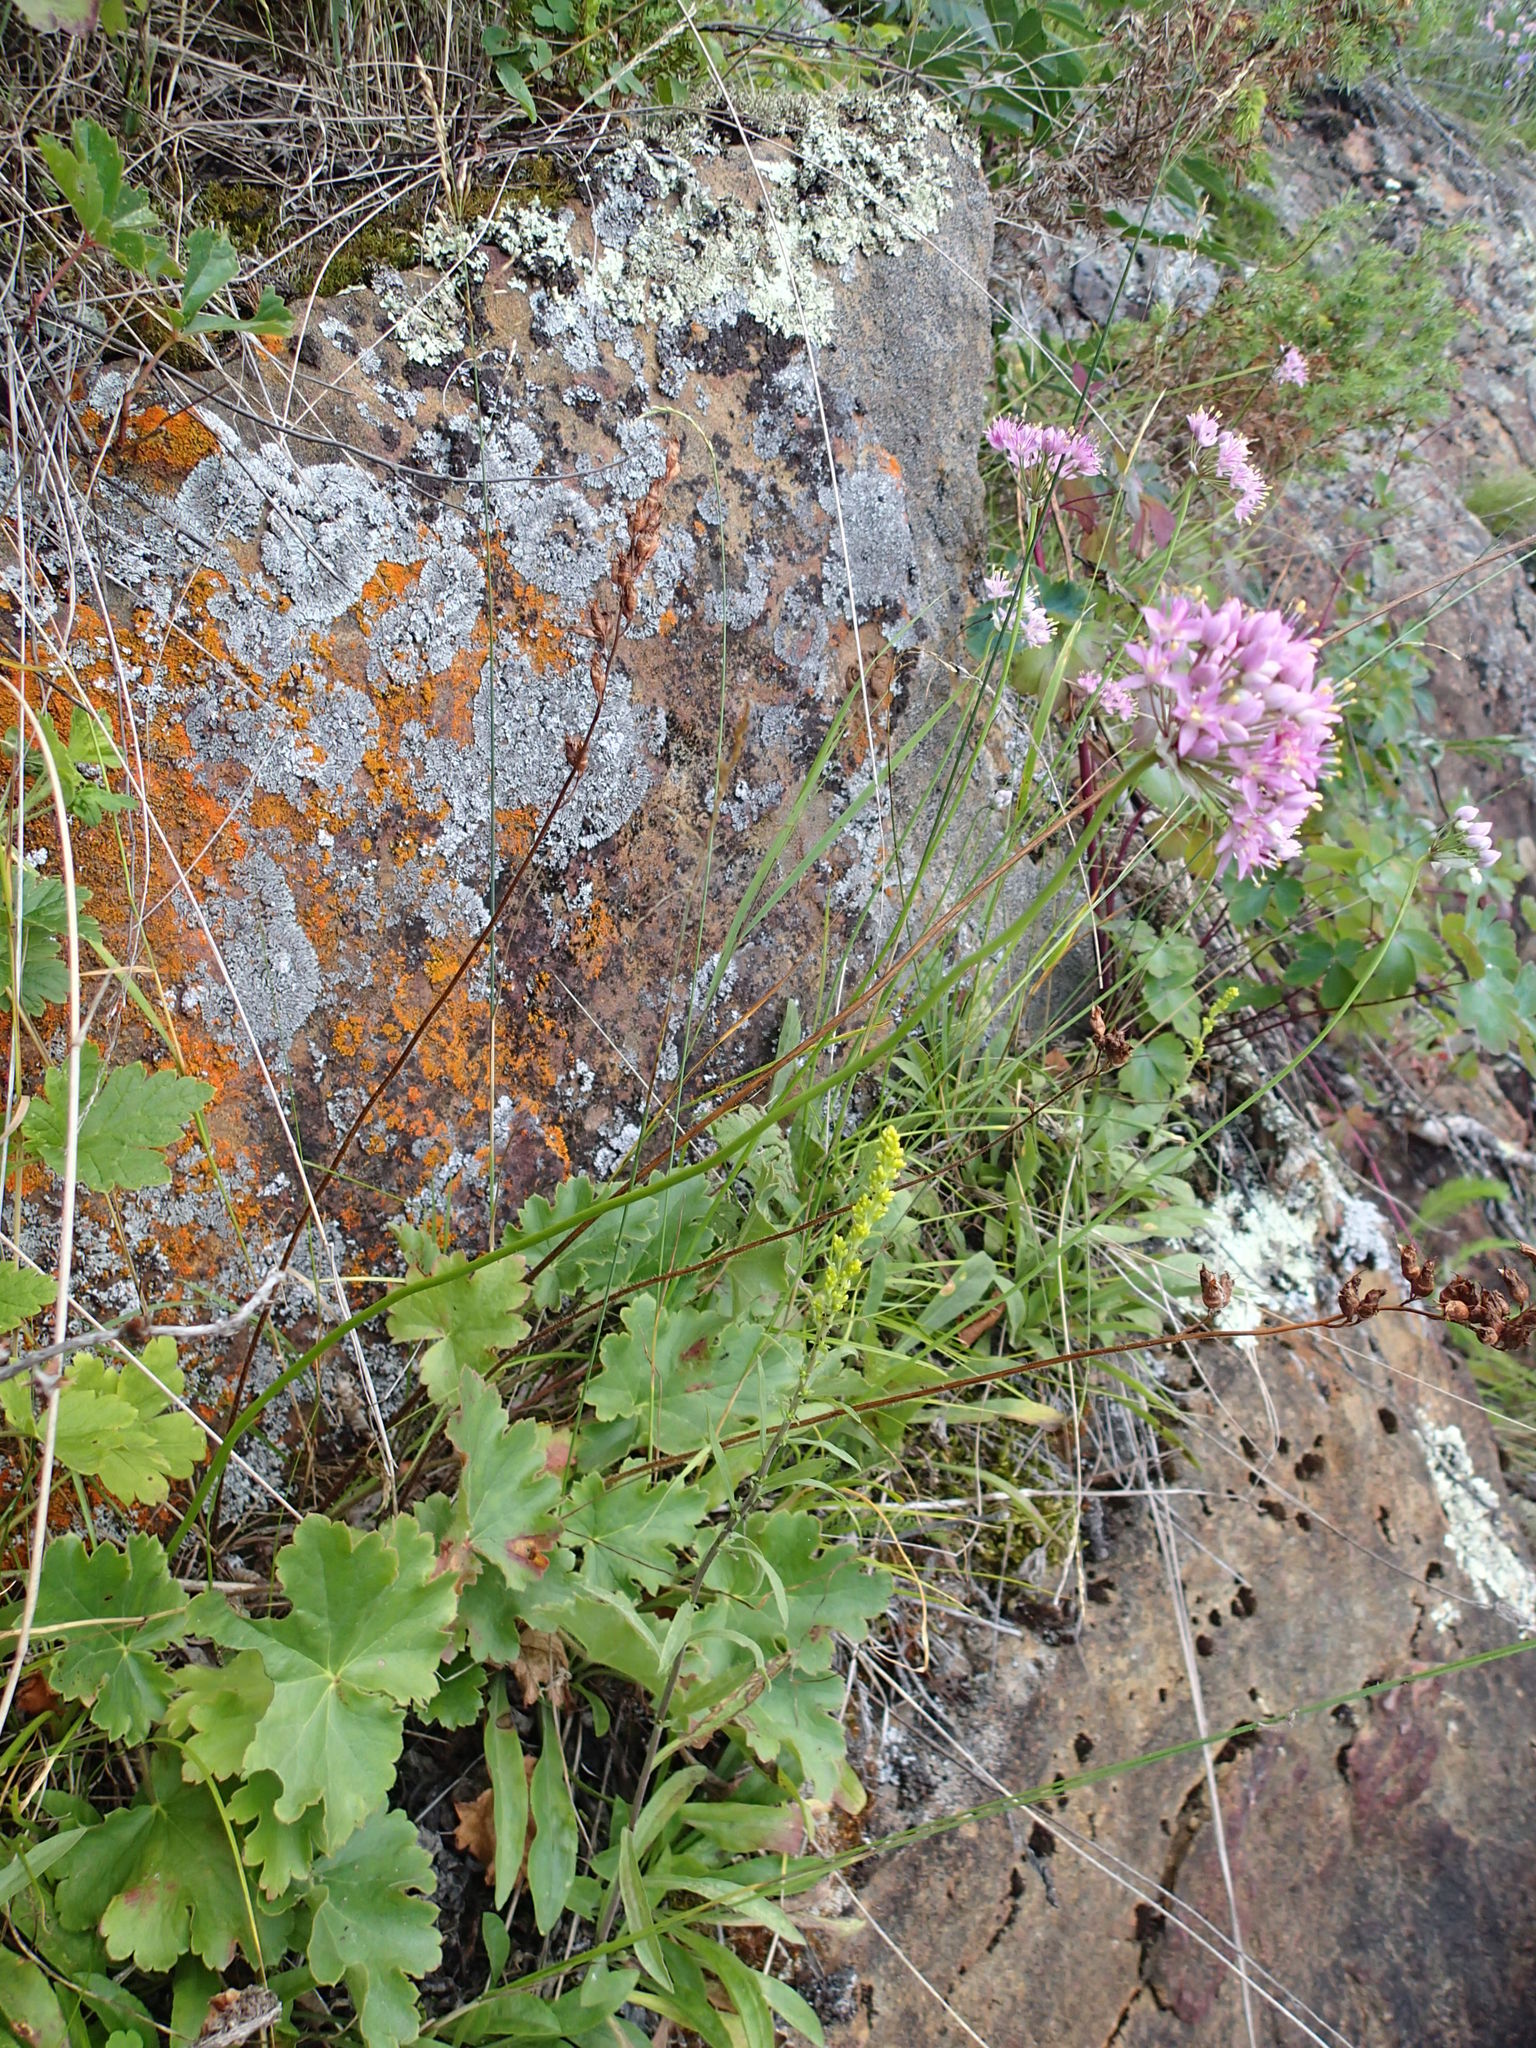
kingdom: Plantae
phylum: Tracheophyta
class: Liliopsida
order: Asparagales
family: Amaryllidaceae
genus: Allium
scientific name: Allium stellatum
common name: Autumn onion
